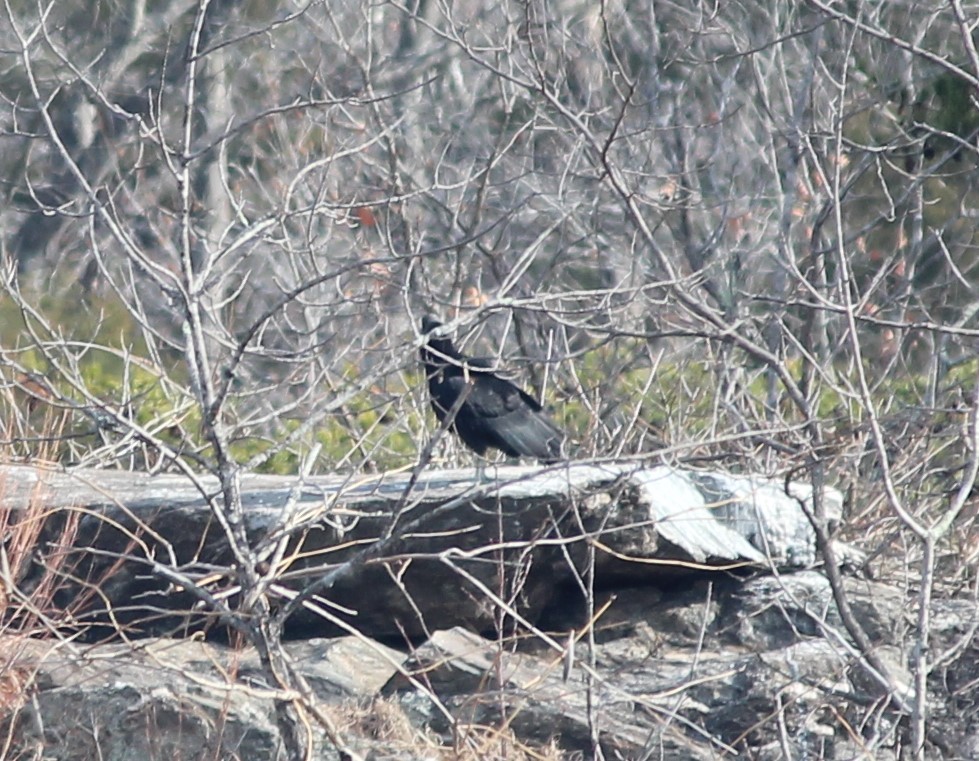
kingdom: Animalia
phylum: Chordata
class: Aves
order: Accipitriformes
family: Cathartidae
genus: Coragyps
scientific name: Coragyps atratus
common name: Black vulture
